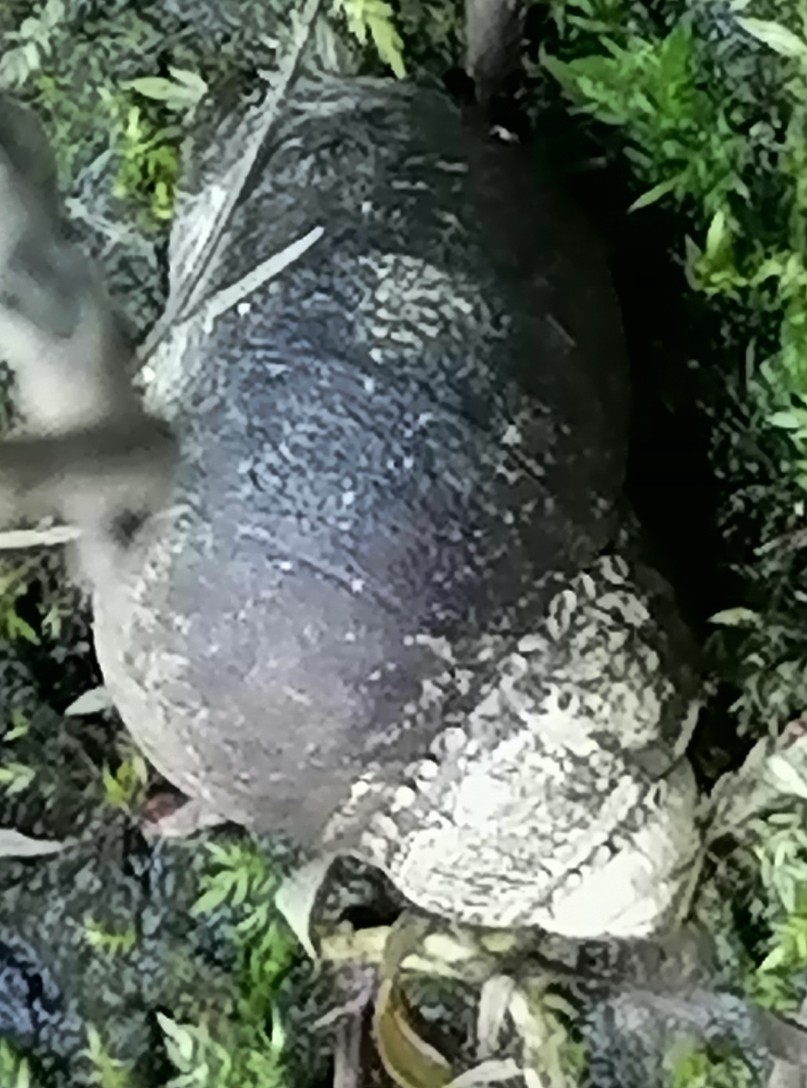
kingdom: Animalia
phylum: Mollusca
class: Gastropoda
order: Architaenioglossa
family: Viviparidae
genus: Viviparus
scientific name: Viviparus viviparus
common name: River snail
